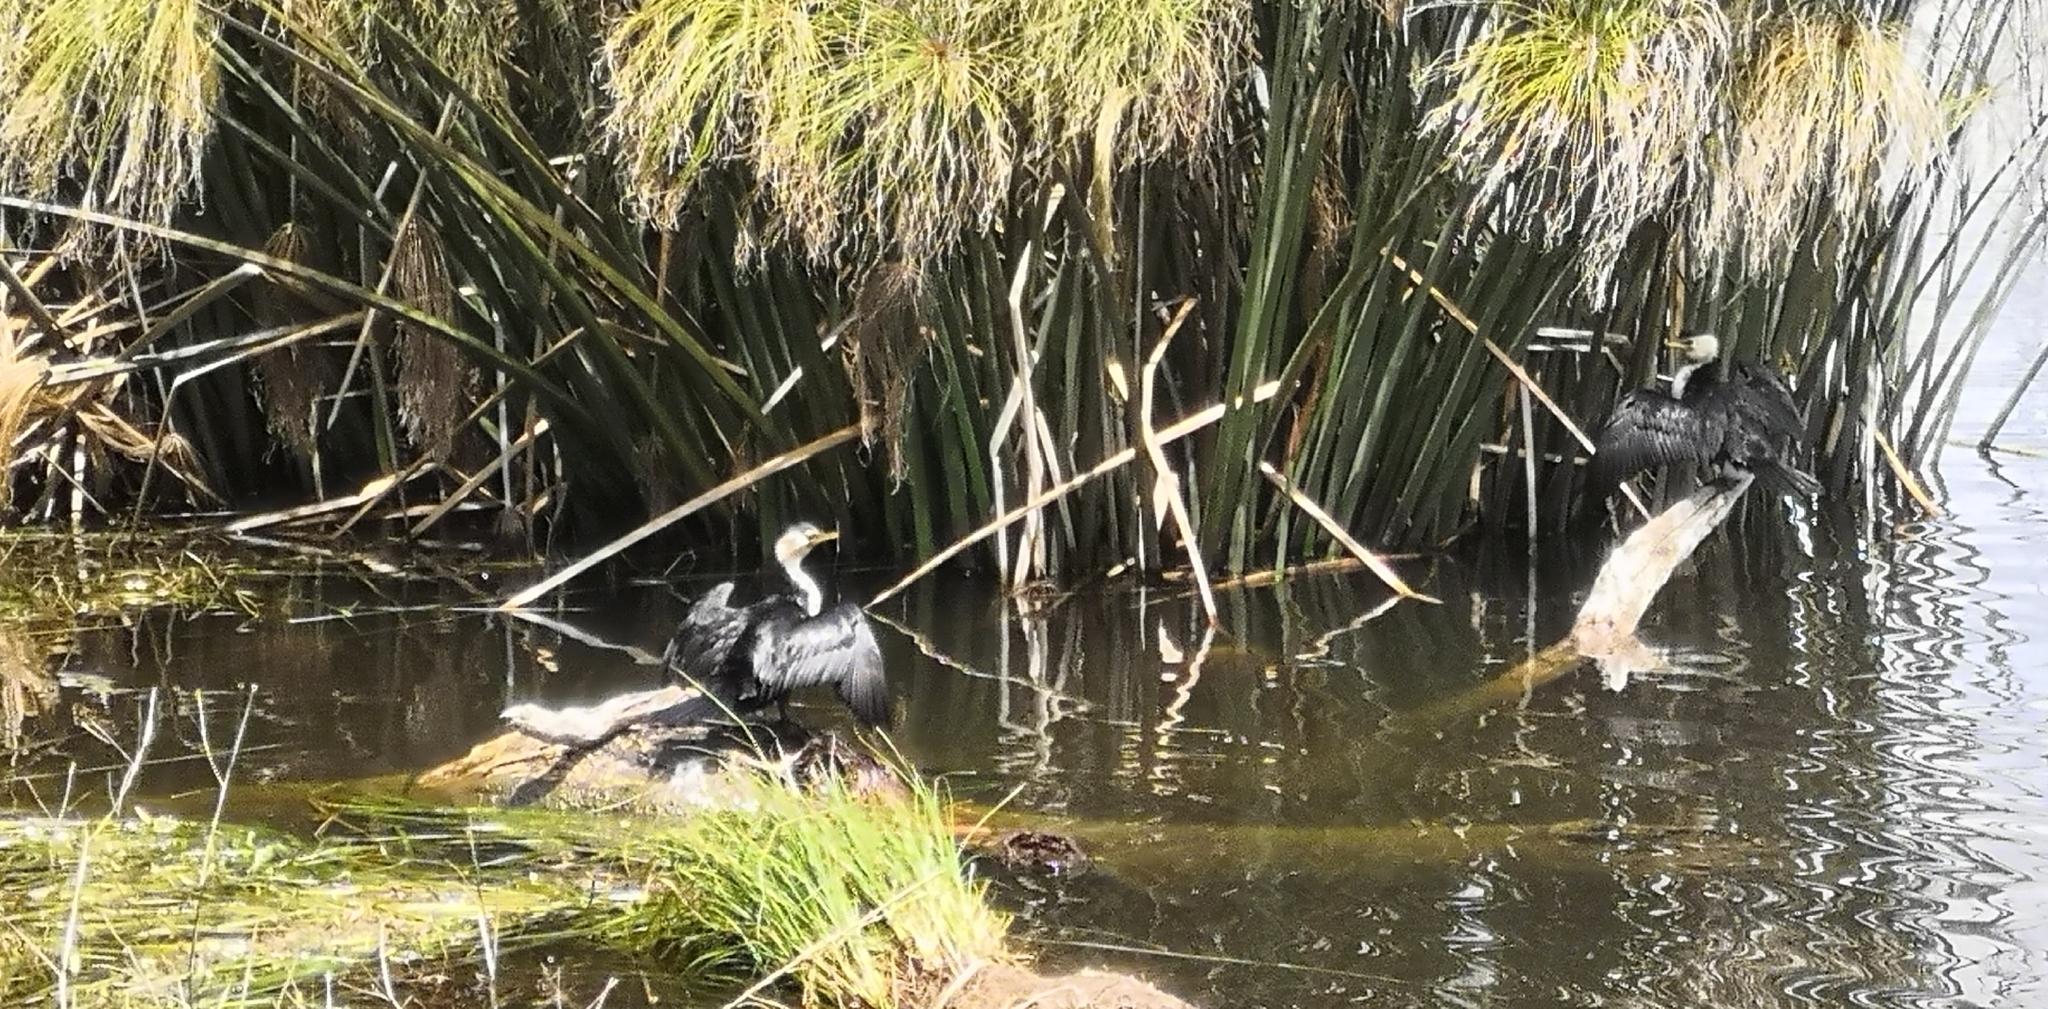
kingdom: Animalia
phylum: Chordata
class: Aves
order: Suliformes
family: Phalacrocoracidae
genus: Microcarbo
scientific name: Microcarbo melanoleucos
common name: Little pied cormorant
